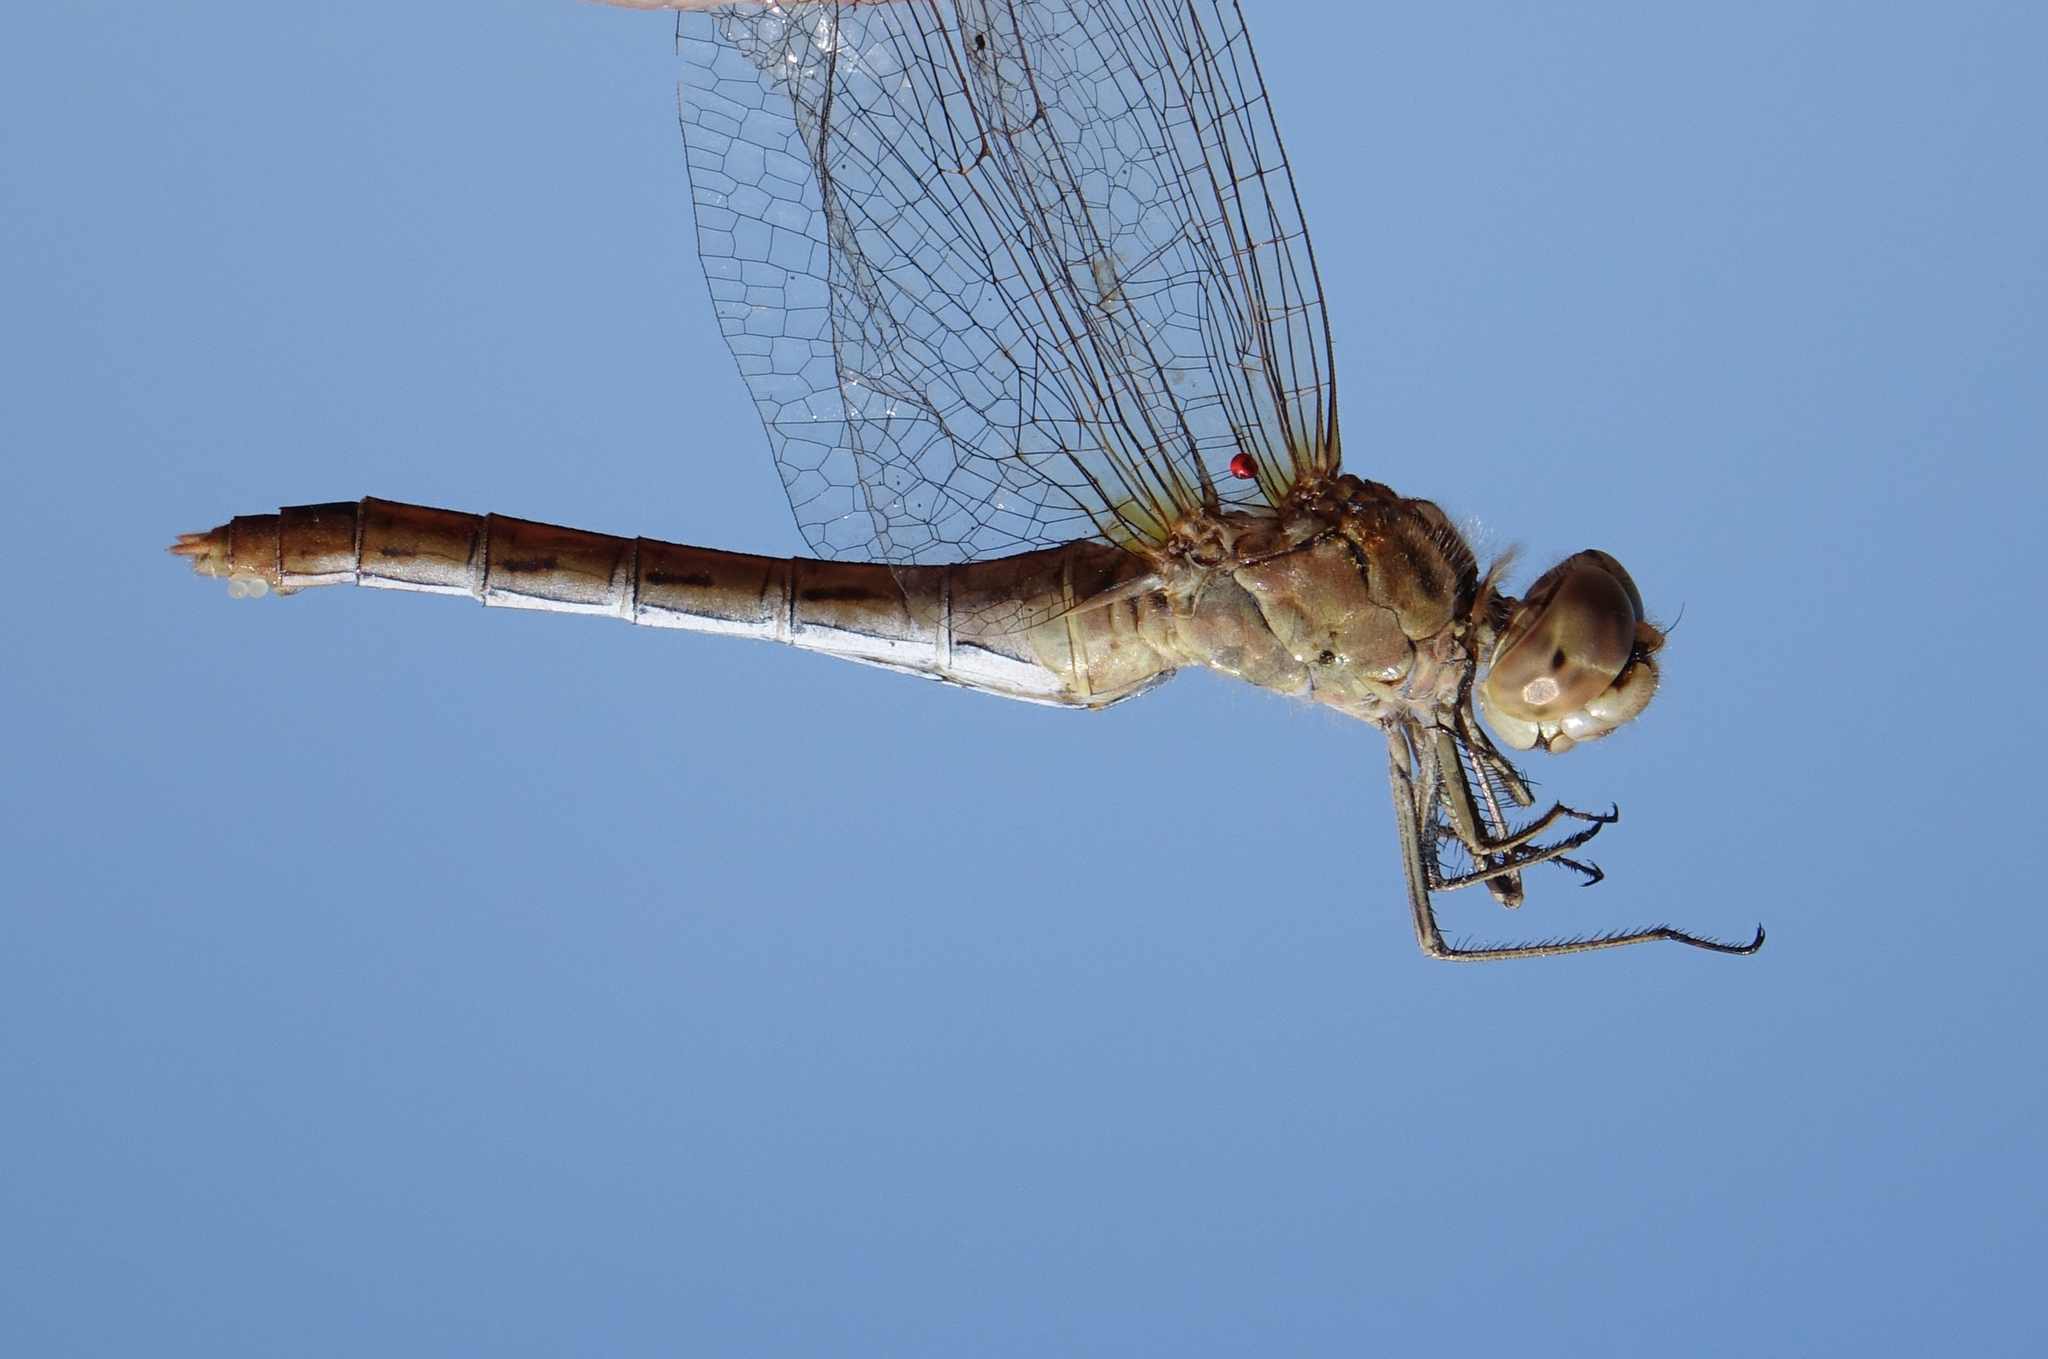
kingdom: Animalia
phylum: Arthropoda
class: Insecta
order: Odonata
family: Libellulidae
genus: Sympetrum
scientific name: Sympetrum meridionale
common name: Southern darter
